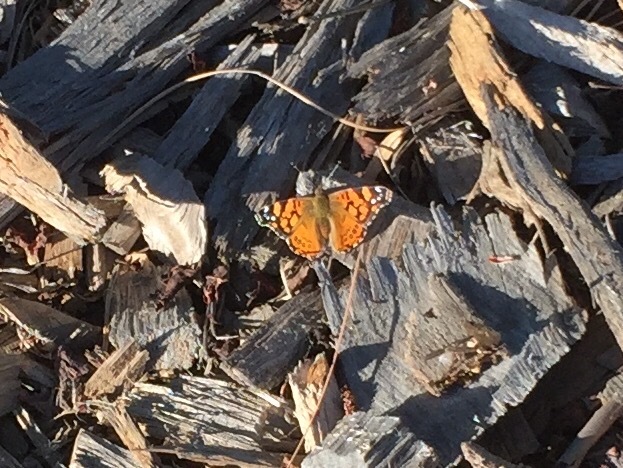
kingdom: Animalia
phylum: Arthropoda
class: Insecta
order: Lepidoptera
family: Nymphalidae
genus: Vanessa
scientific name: Vanessa annabella
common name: West coast lady
